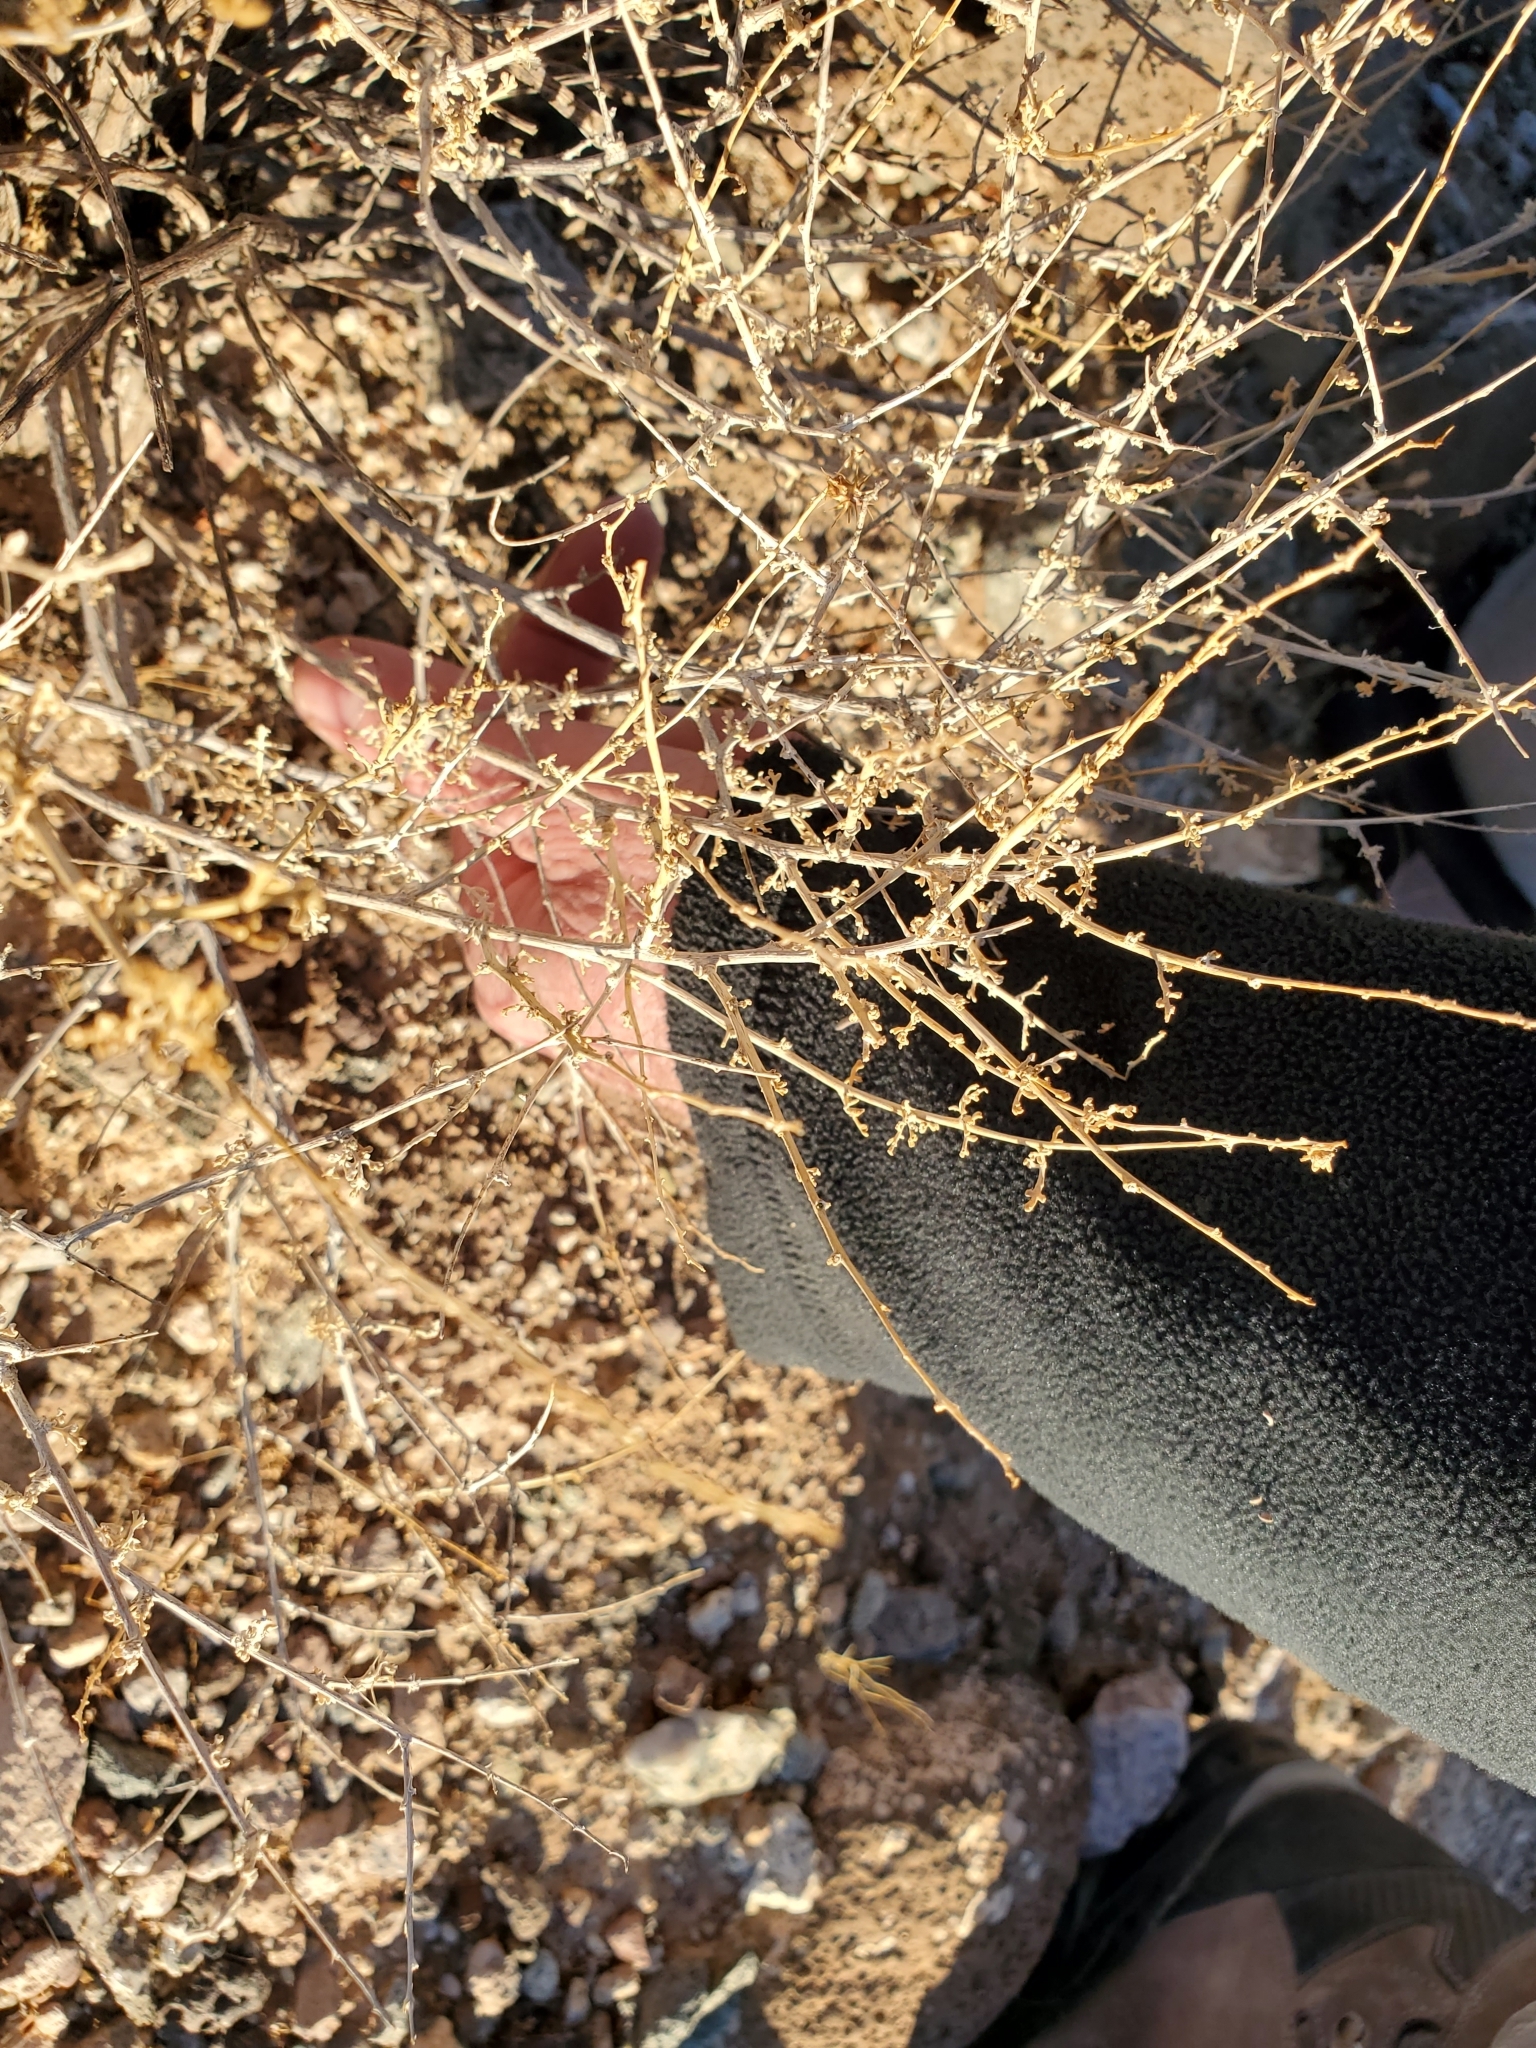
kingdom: Plantae
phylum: Tracheophyta
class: Magnoliopsida
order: Asterales
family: Asteraceae
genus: Ambrosia
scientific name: Ambrosia dumosa
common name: Bur-sage
